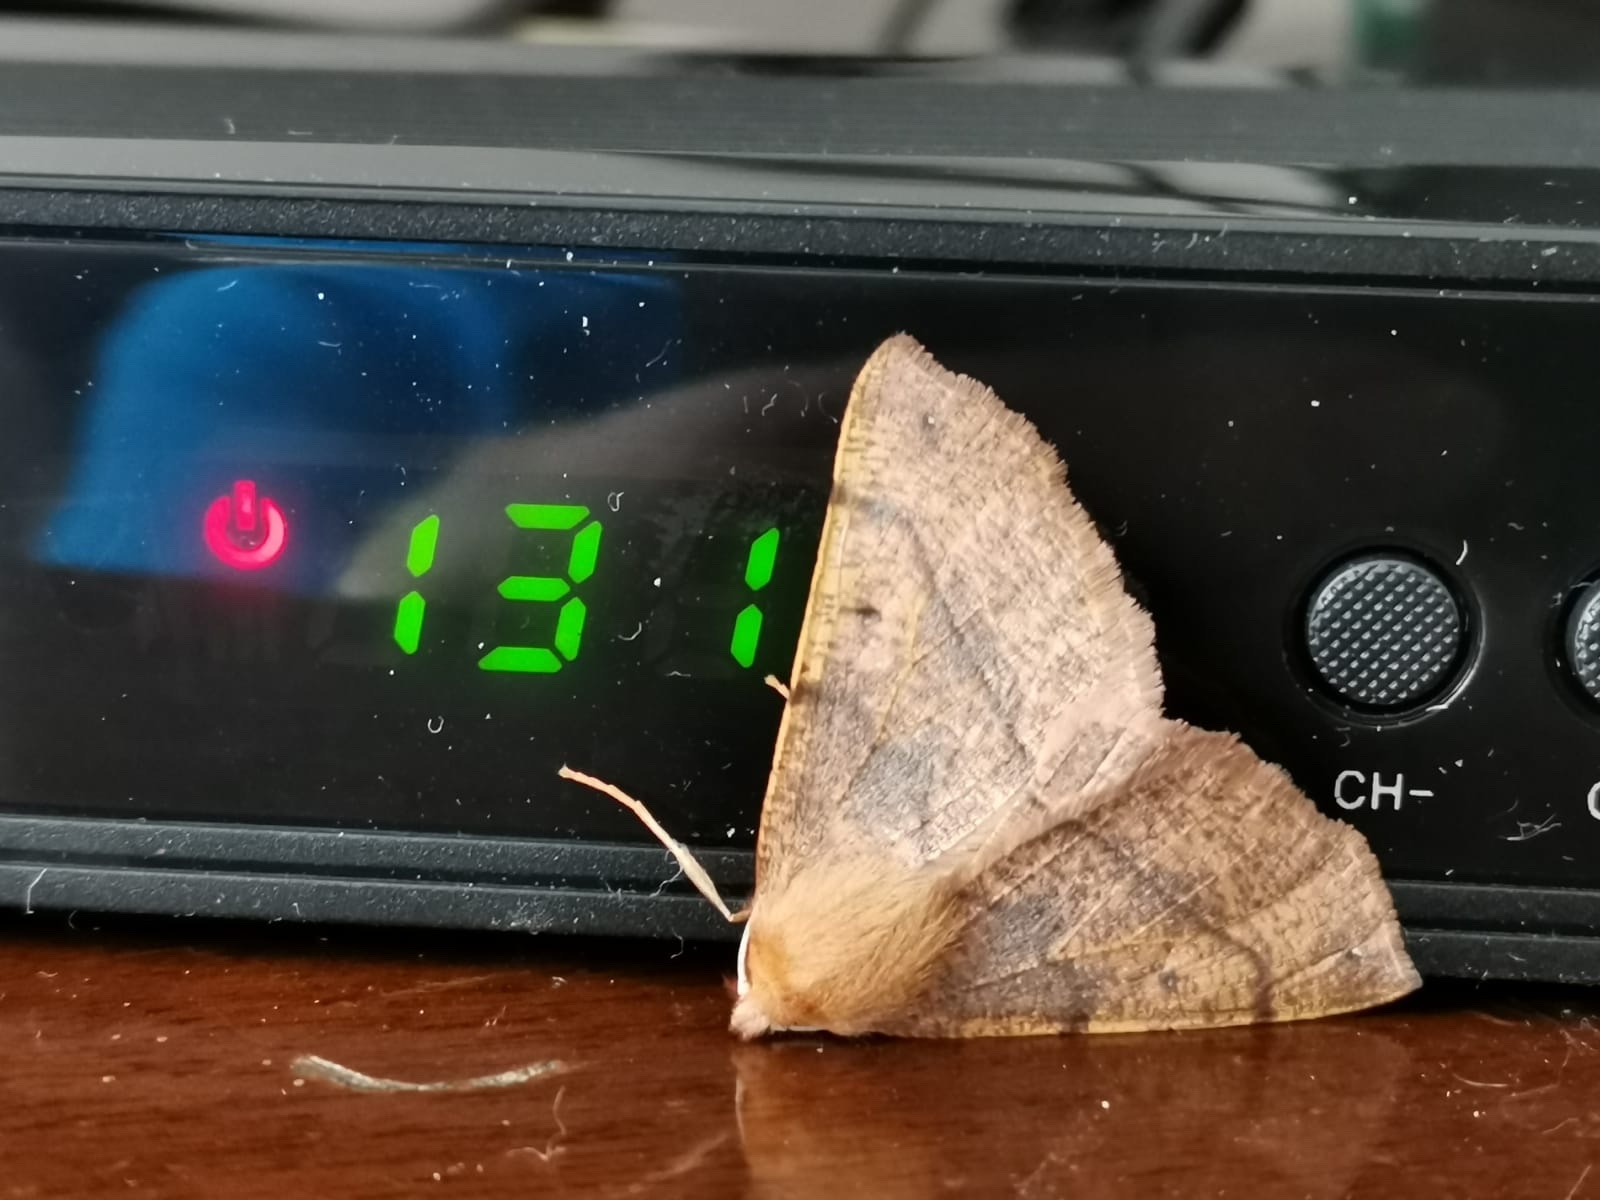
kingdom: Animalia
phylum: Arthropoda
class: Insecta
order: Lepidoptera
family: Geometridae
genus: Colotois
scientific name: Colotois pennaria
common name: Feathered thorn
